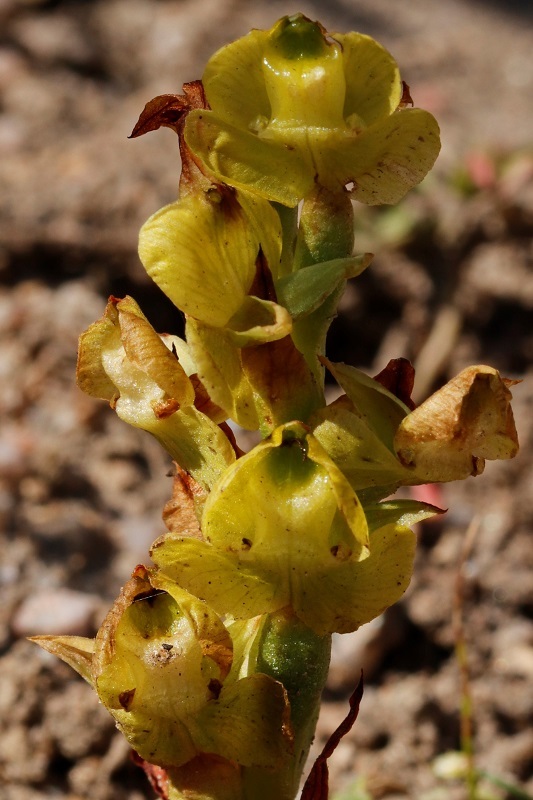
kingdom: Plantae
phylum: Tracheophyta
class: Liliopsida
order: Asparagales
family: Orchidaceae
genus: Pterygodium
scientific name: Pterygodium caffrum
